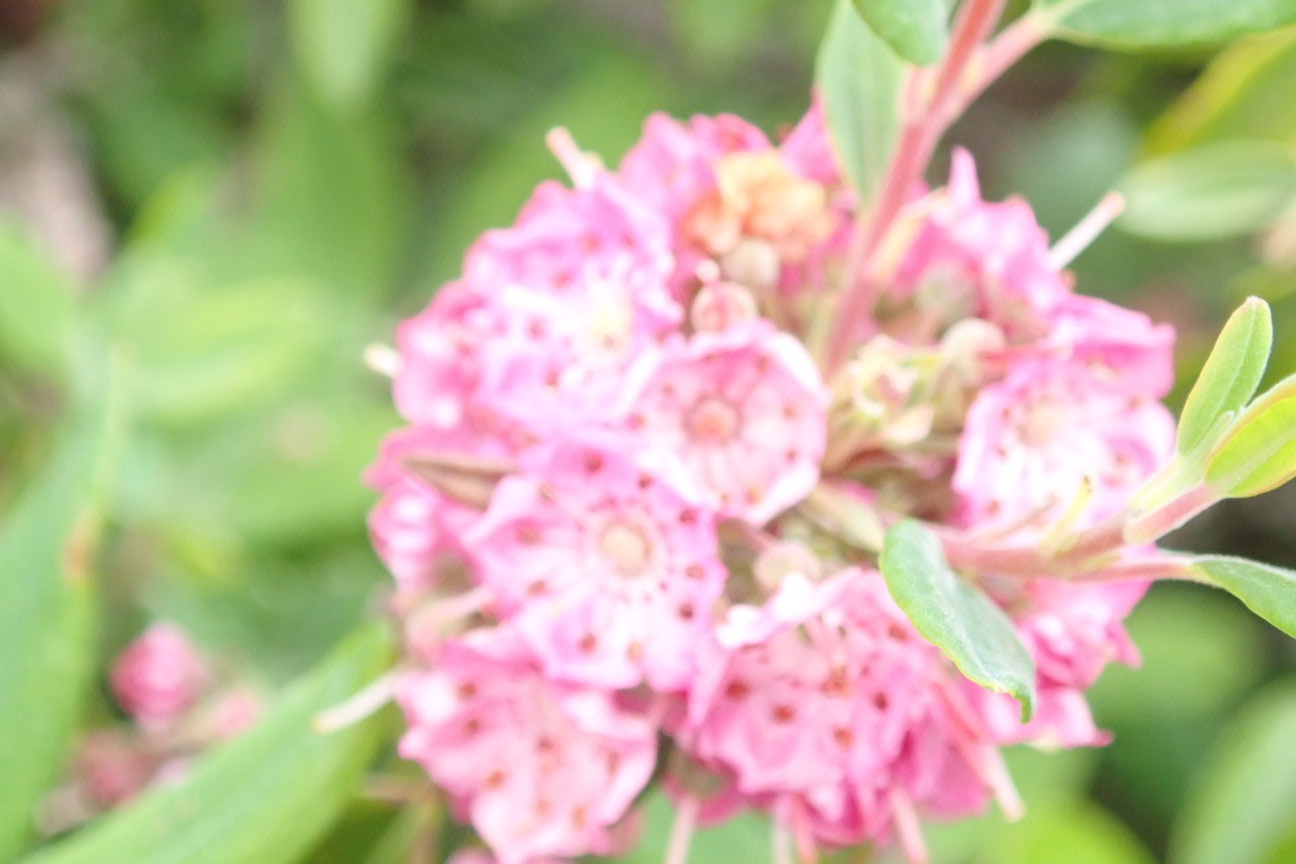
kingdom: Plantae
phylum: Tracheophyta
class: Magnoliopsida
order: Ericales
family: Ericaceae
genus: Kalmia
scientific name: Kalmia angustifolia
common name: Sheep-laurel
